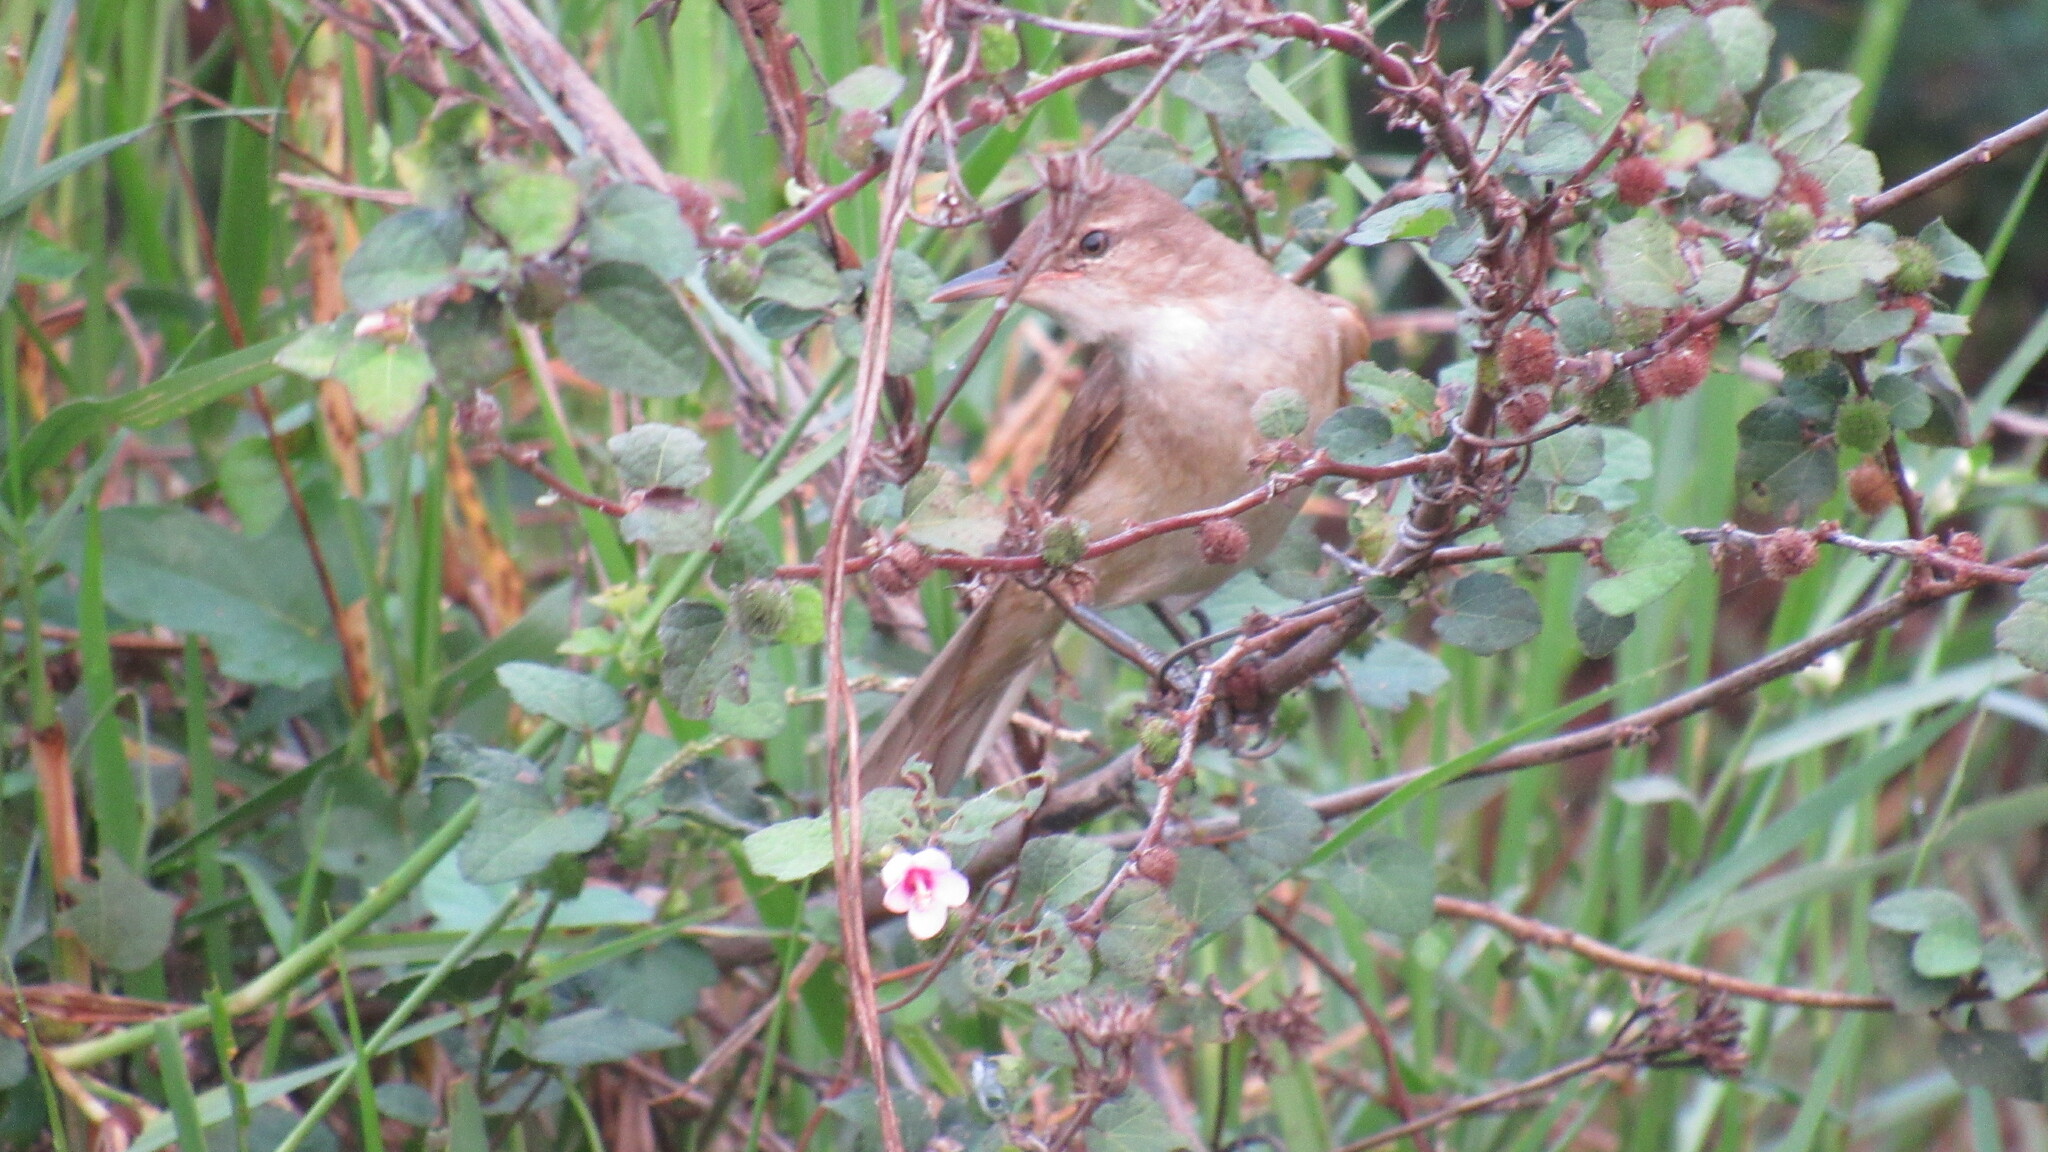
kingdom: Animalia
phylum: Chordata
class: Aves
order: Passeriformes
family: Acrocephalidae
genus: Acrocephalus
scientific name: Acrocephalus stentoreus
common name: Clamorous reed warbler
